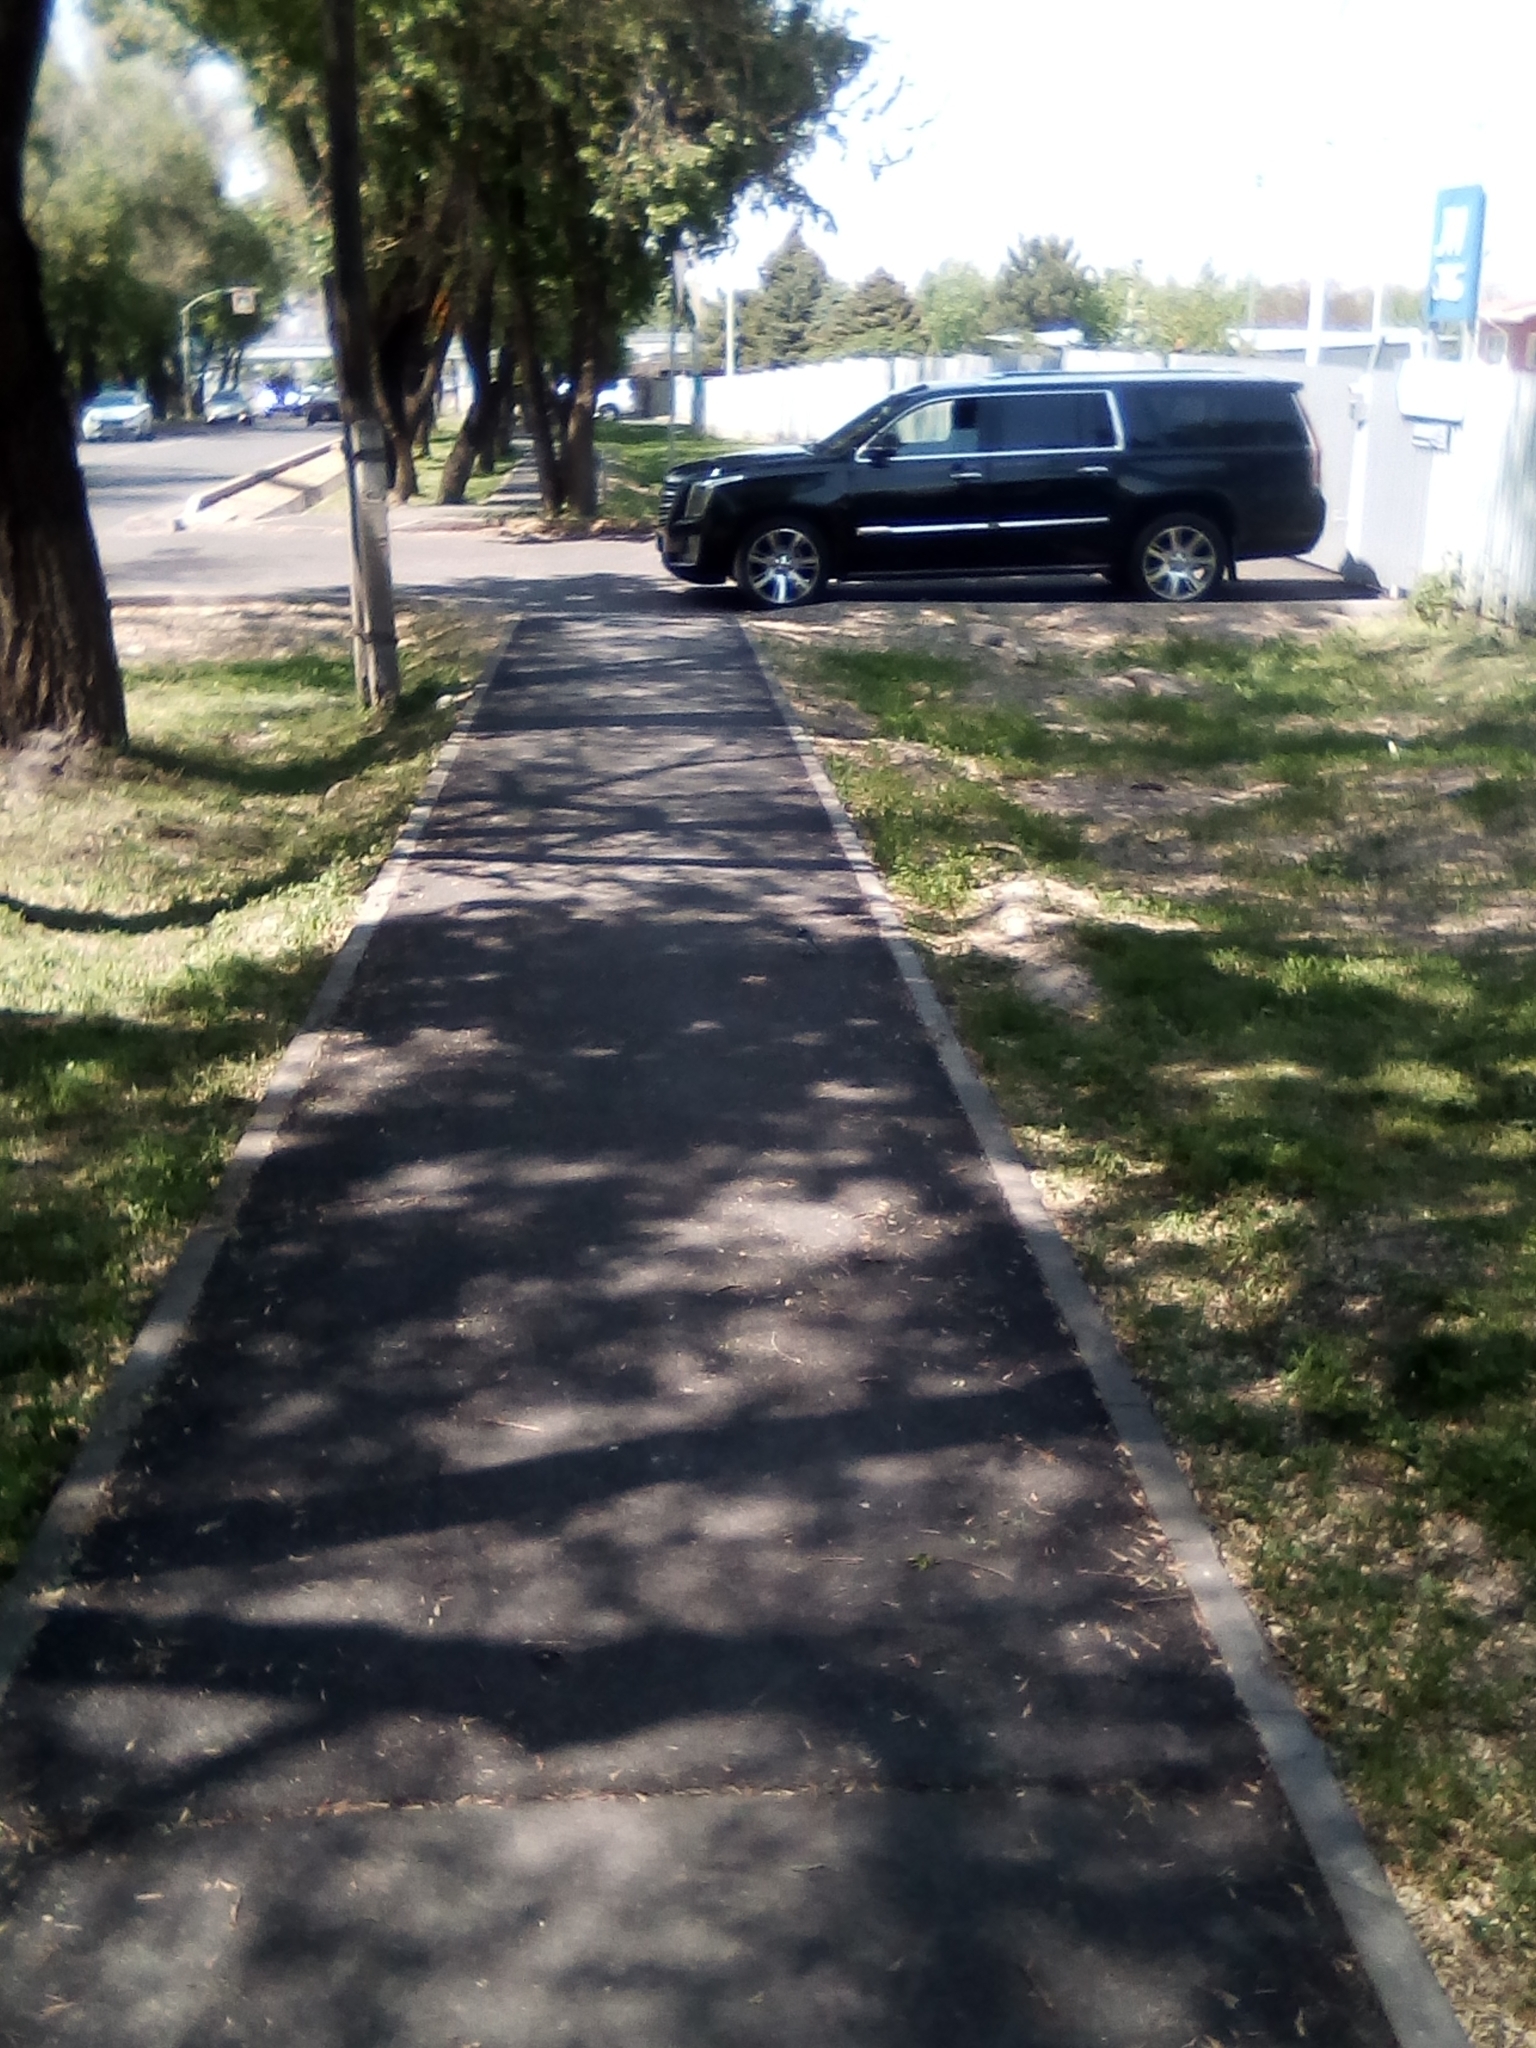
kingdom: Animalia
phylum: Chordata
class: Aves
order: Passeriformes
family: Motacillidae
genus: Motacilla
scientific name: Motacilla alba
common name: White wagtail
